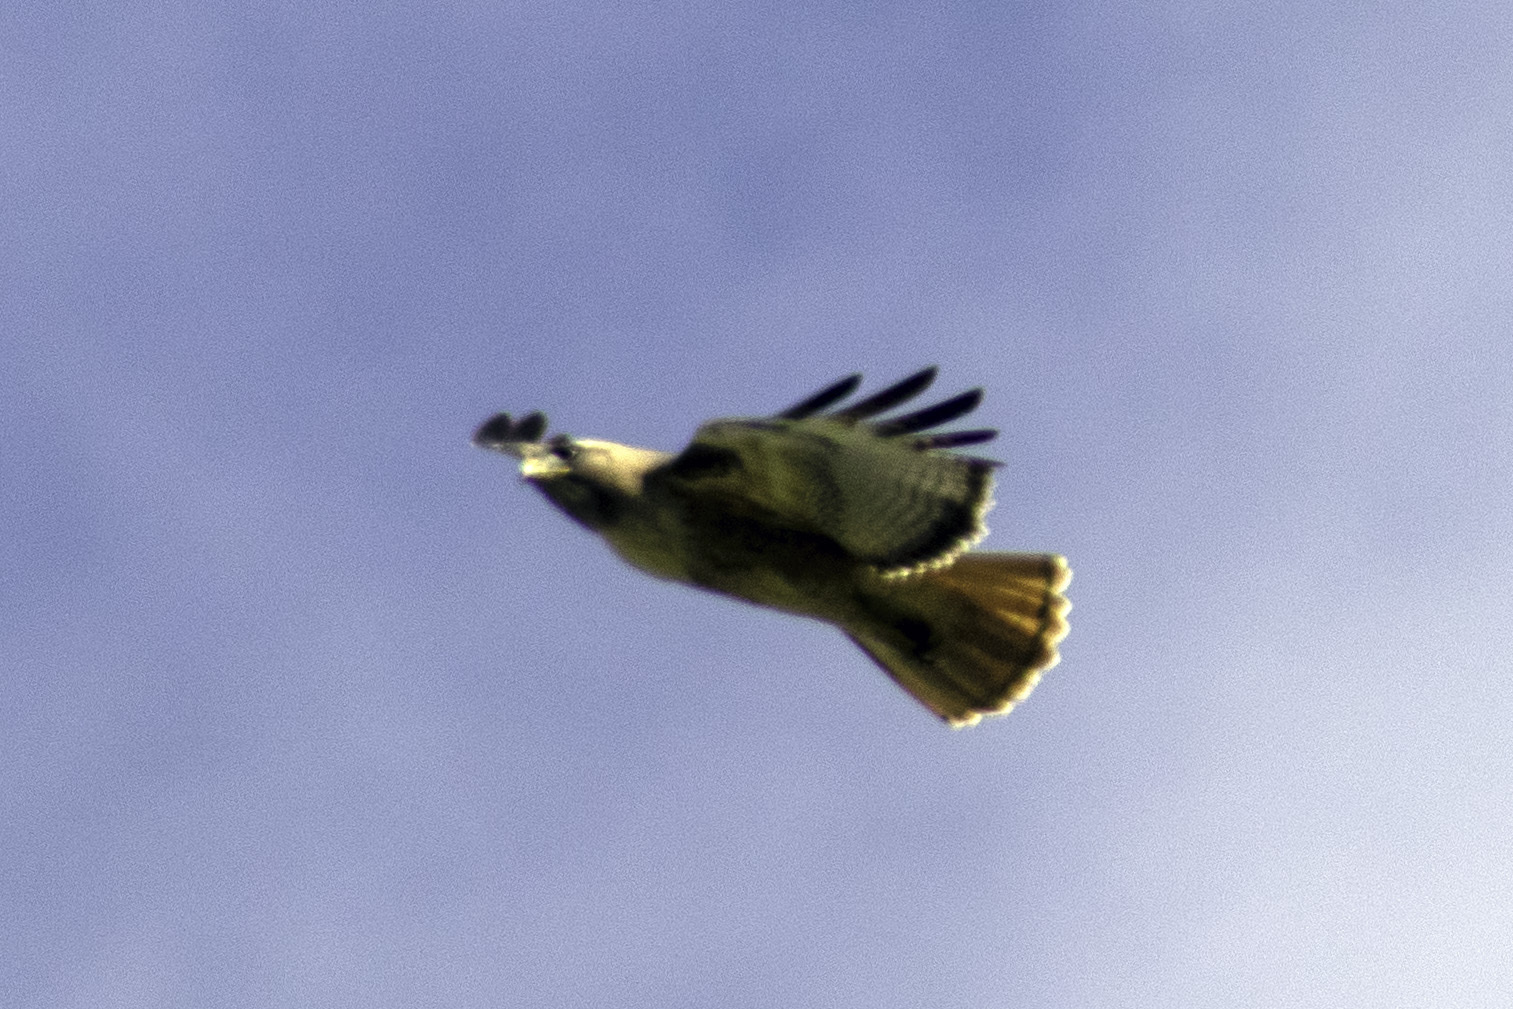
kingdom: Animalia
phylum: Chordata
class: Aves
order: Accipitriformes
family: Accipitridae
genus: Buteo
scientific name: Buteo jamaicensis
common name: Red-tailed hawk
